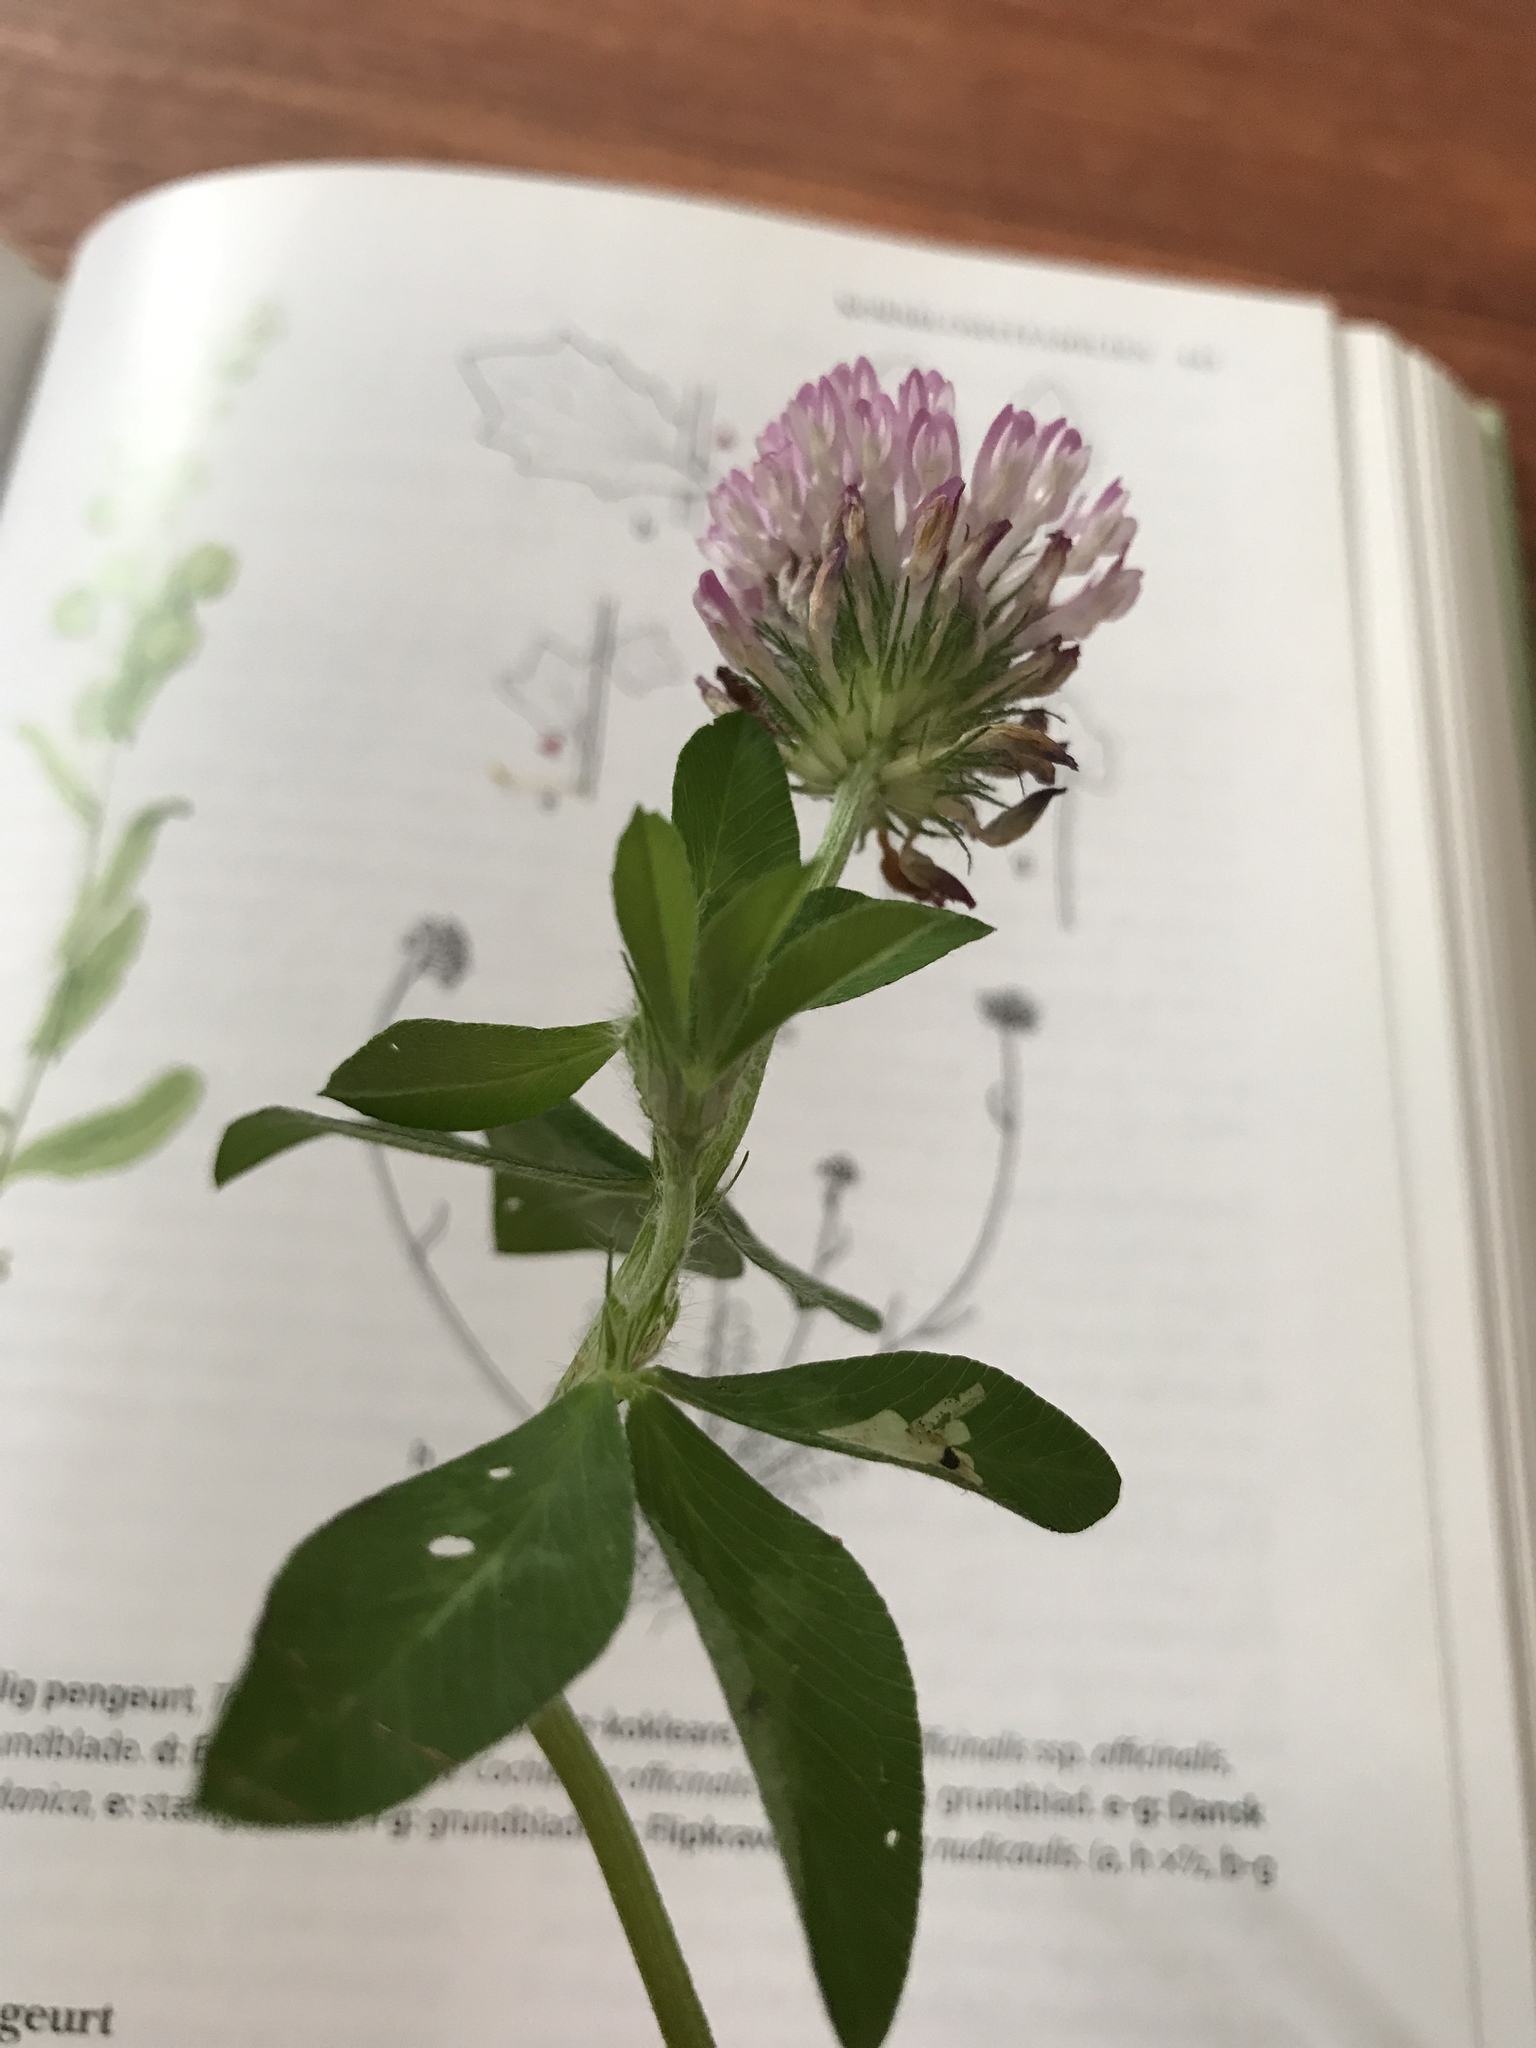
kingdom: Plantae
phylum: Tracheophyta
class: Magnoliopsida
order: Fabales
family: Fabaceae
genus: Trifolium
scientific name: Trifolium pratense
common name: Red clover
